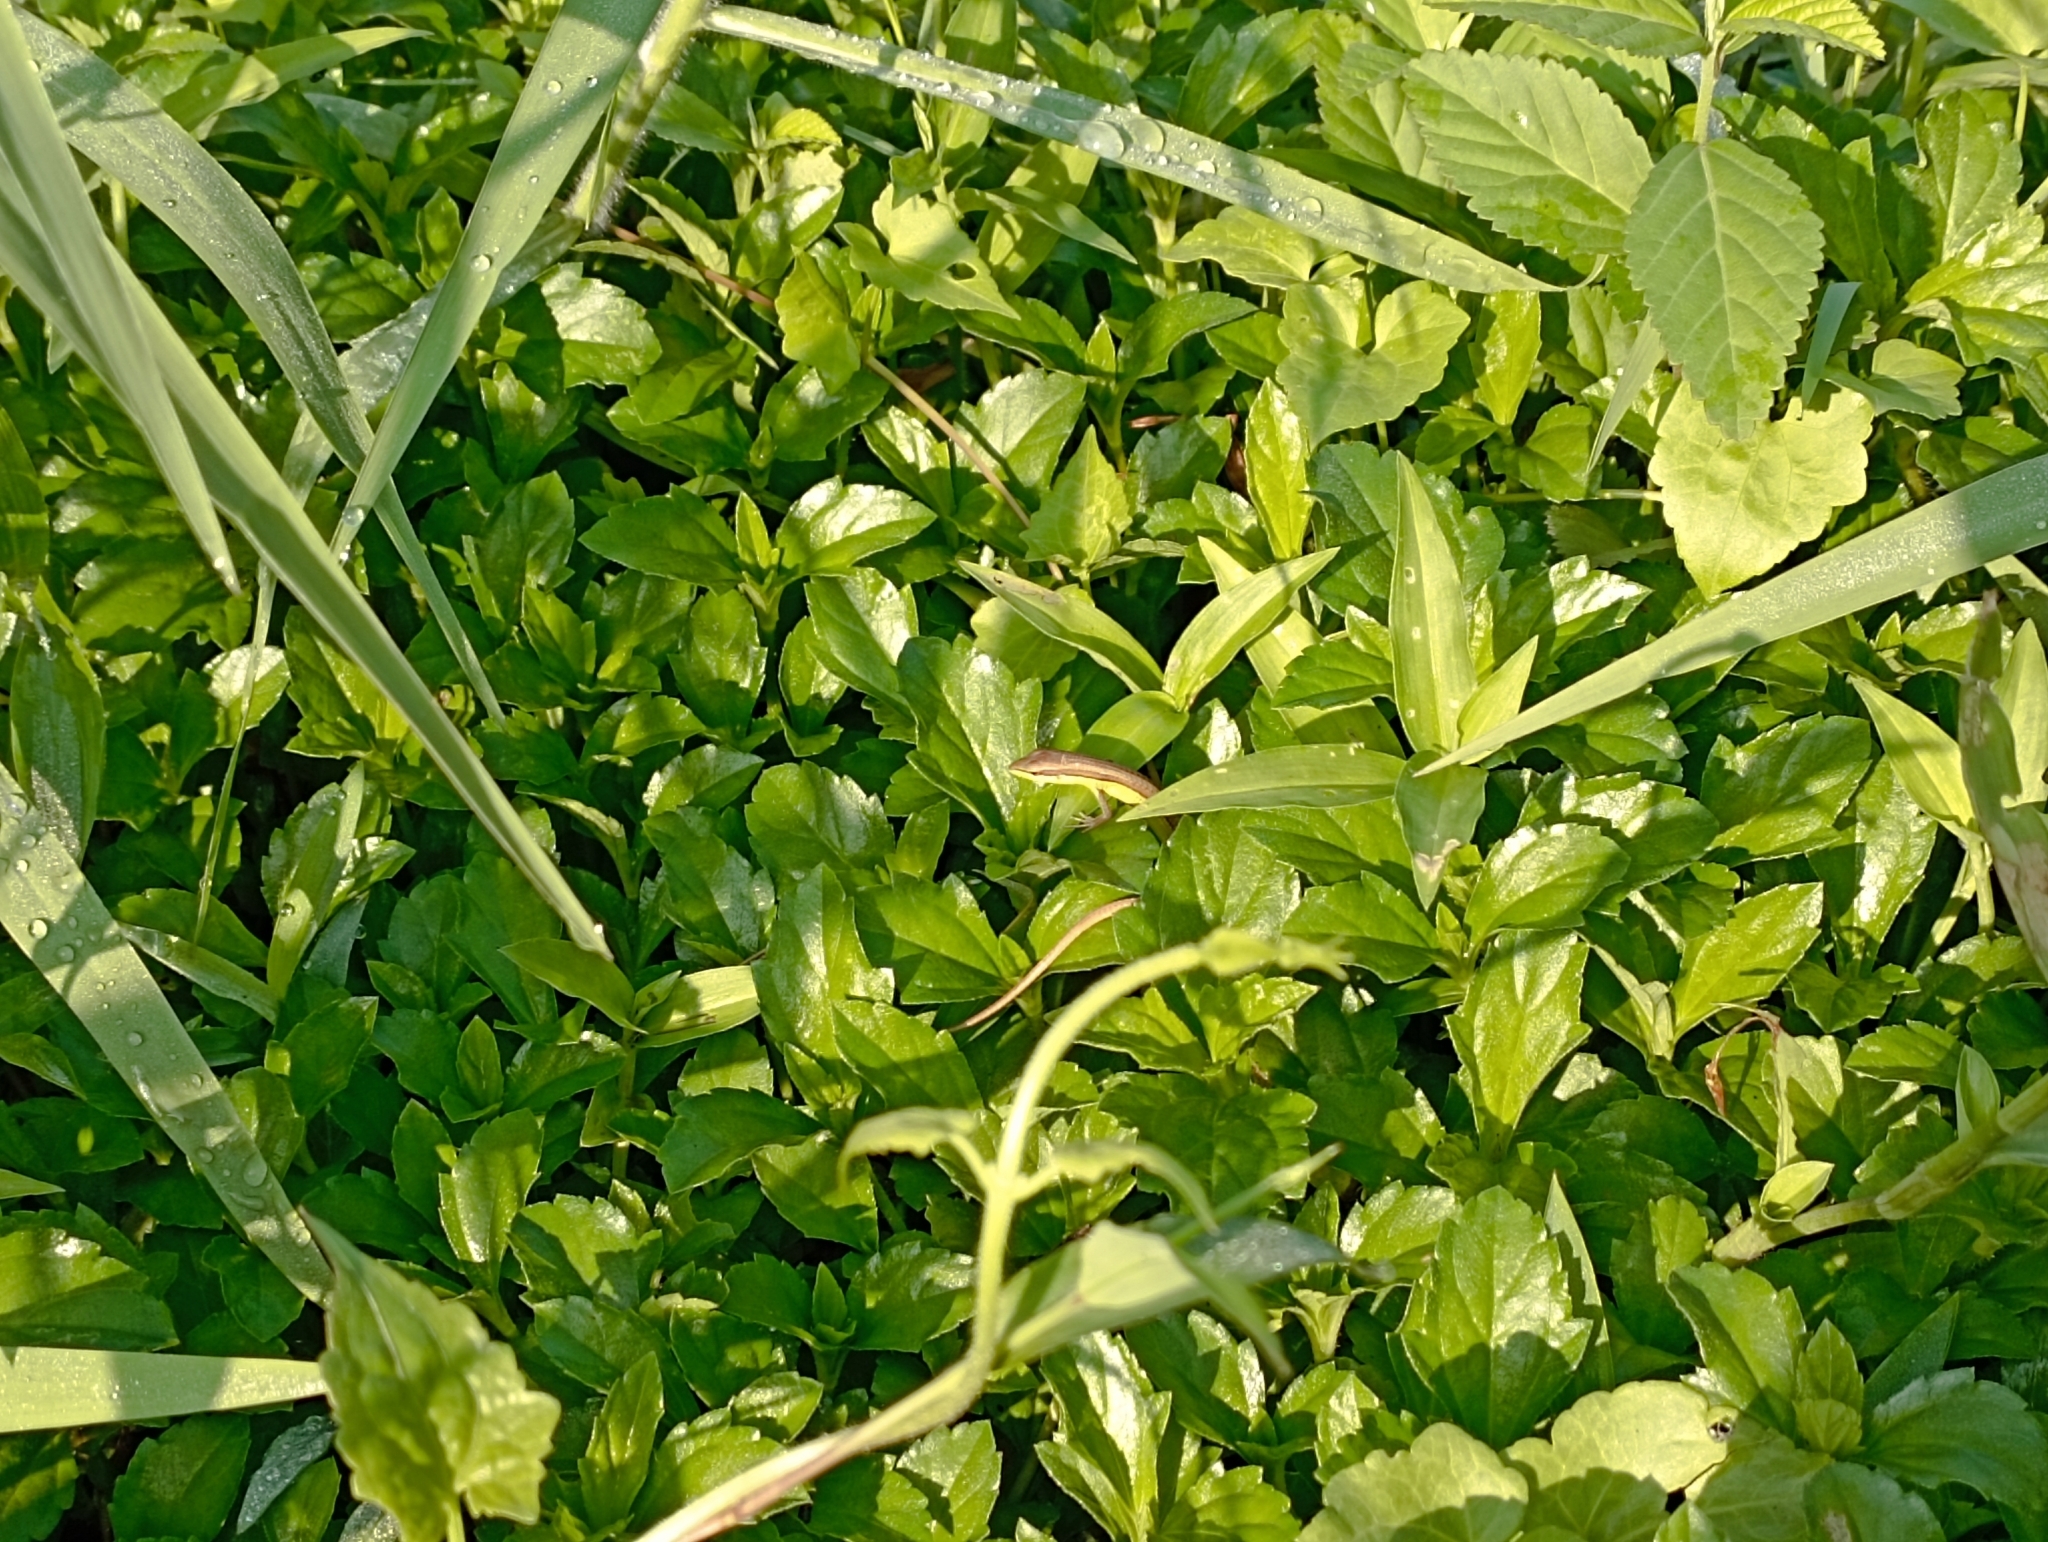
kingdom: Animalia
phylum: Chordata
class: Squamata
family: Lacertidae
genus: Takydromus
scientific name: Takydromus sexlineatus
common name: Asian grass lizard
